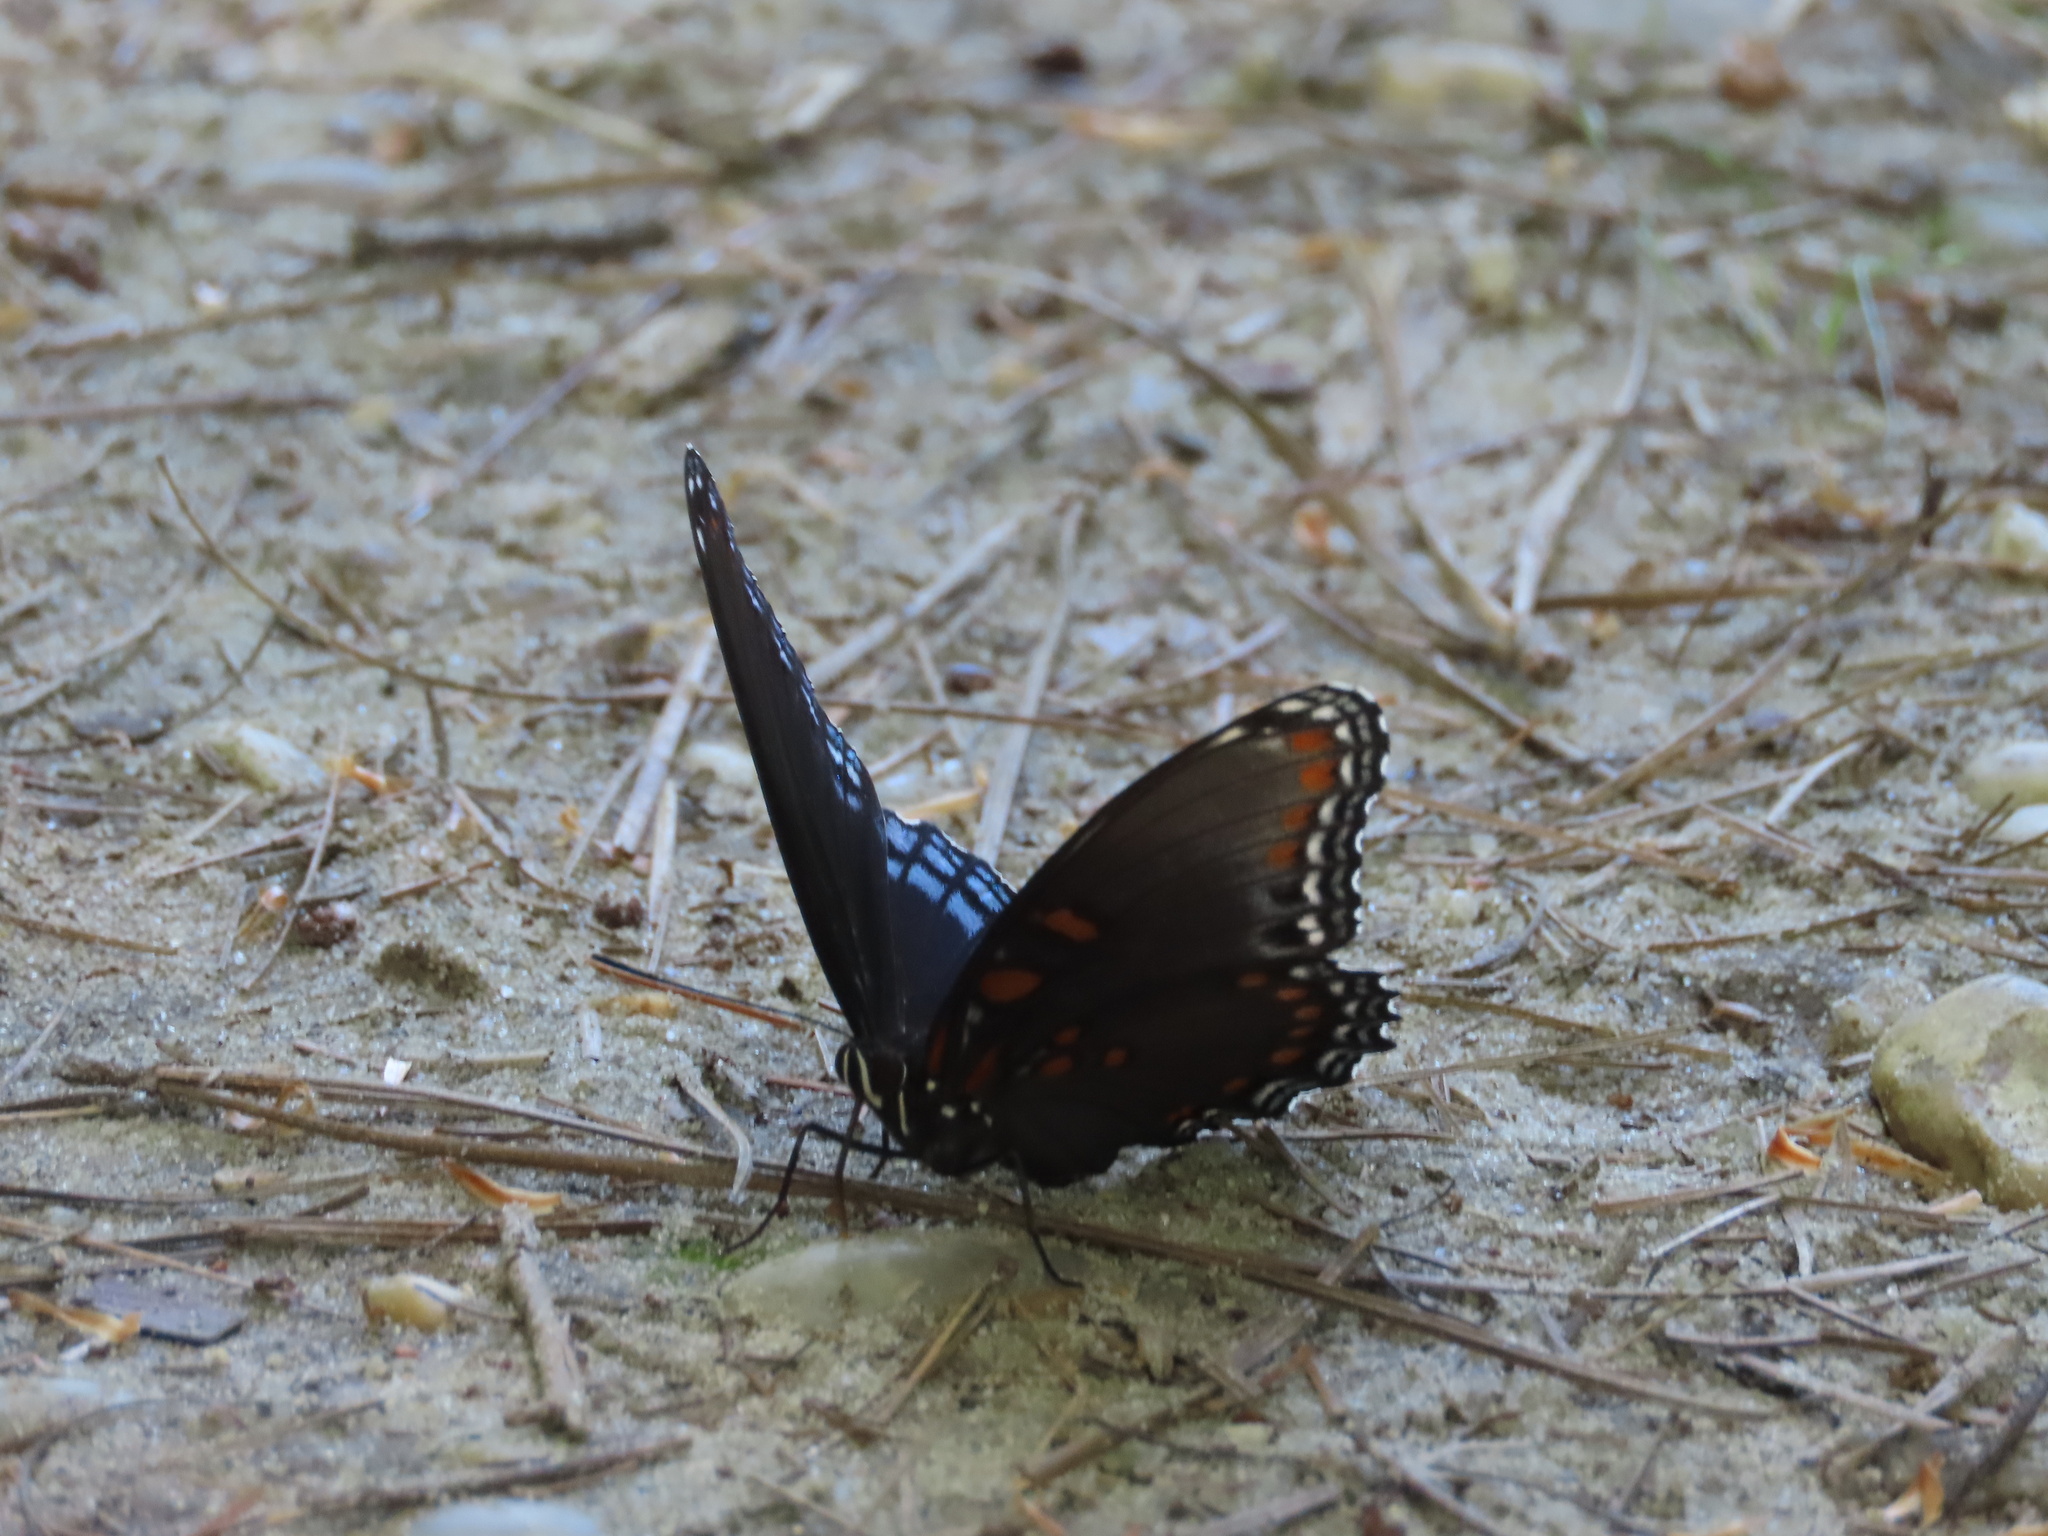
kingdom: Animalia
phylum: Arthropoda
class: Insecta
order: Lepidoptera
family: Nymphalidae
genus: Limenitis
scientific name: Limenitis astyanax
